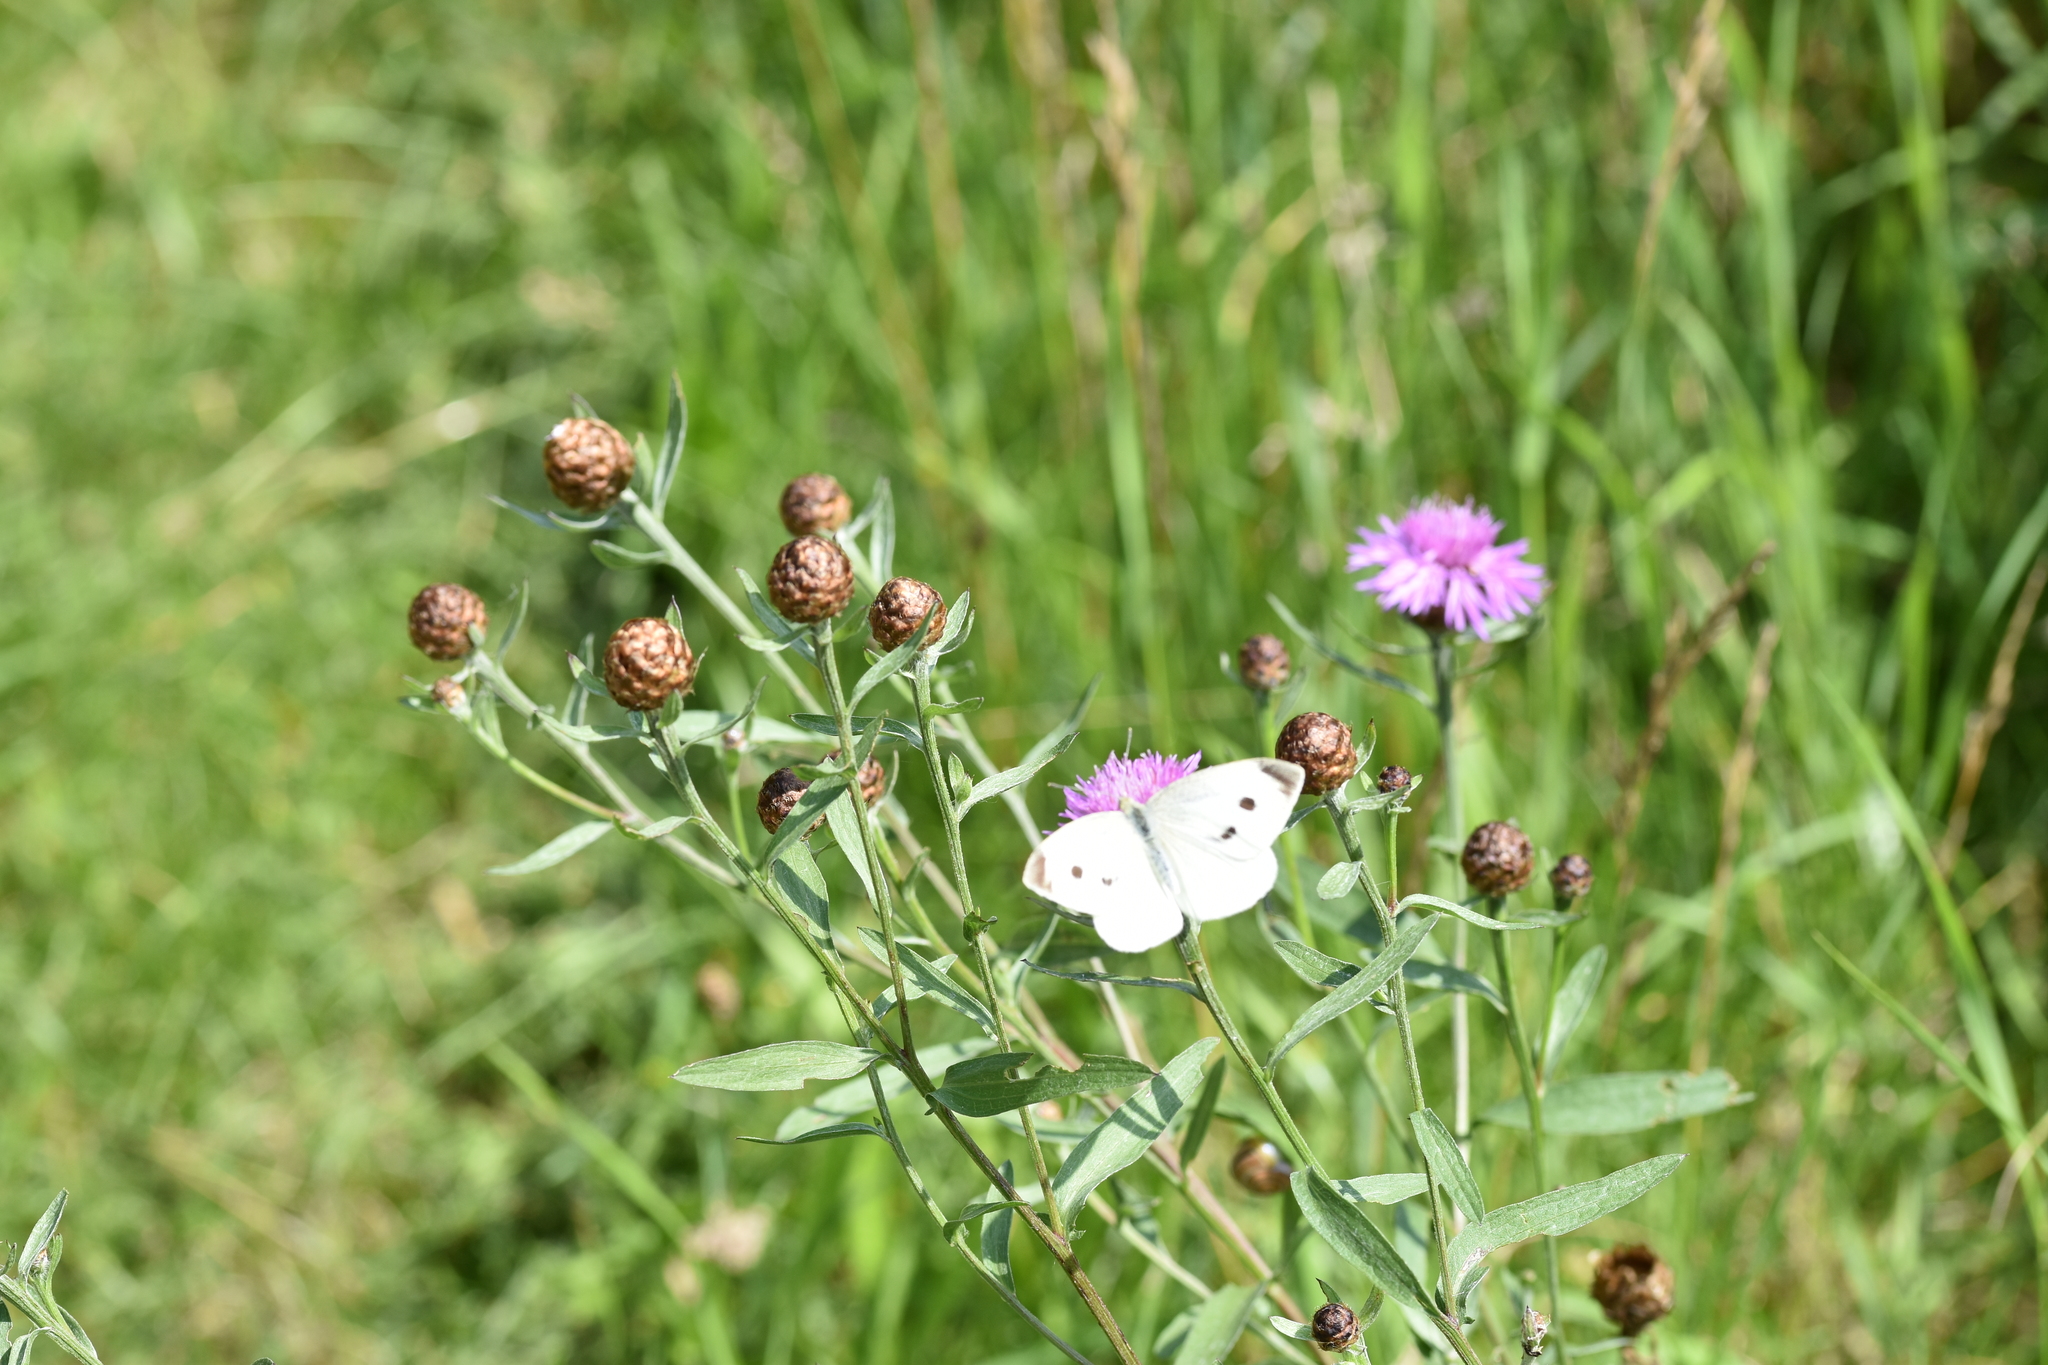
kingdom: Animalia
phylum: Arthropoda
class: Insecta
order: Lepidoptera
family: Pieridae
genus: Pieris
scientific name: Pieris rapae
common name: Small white
